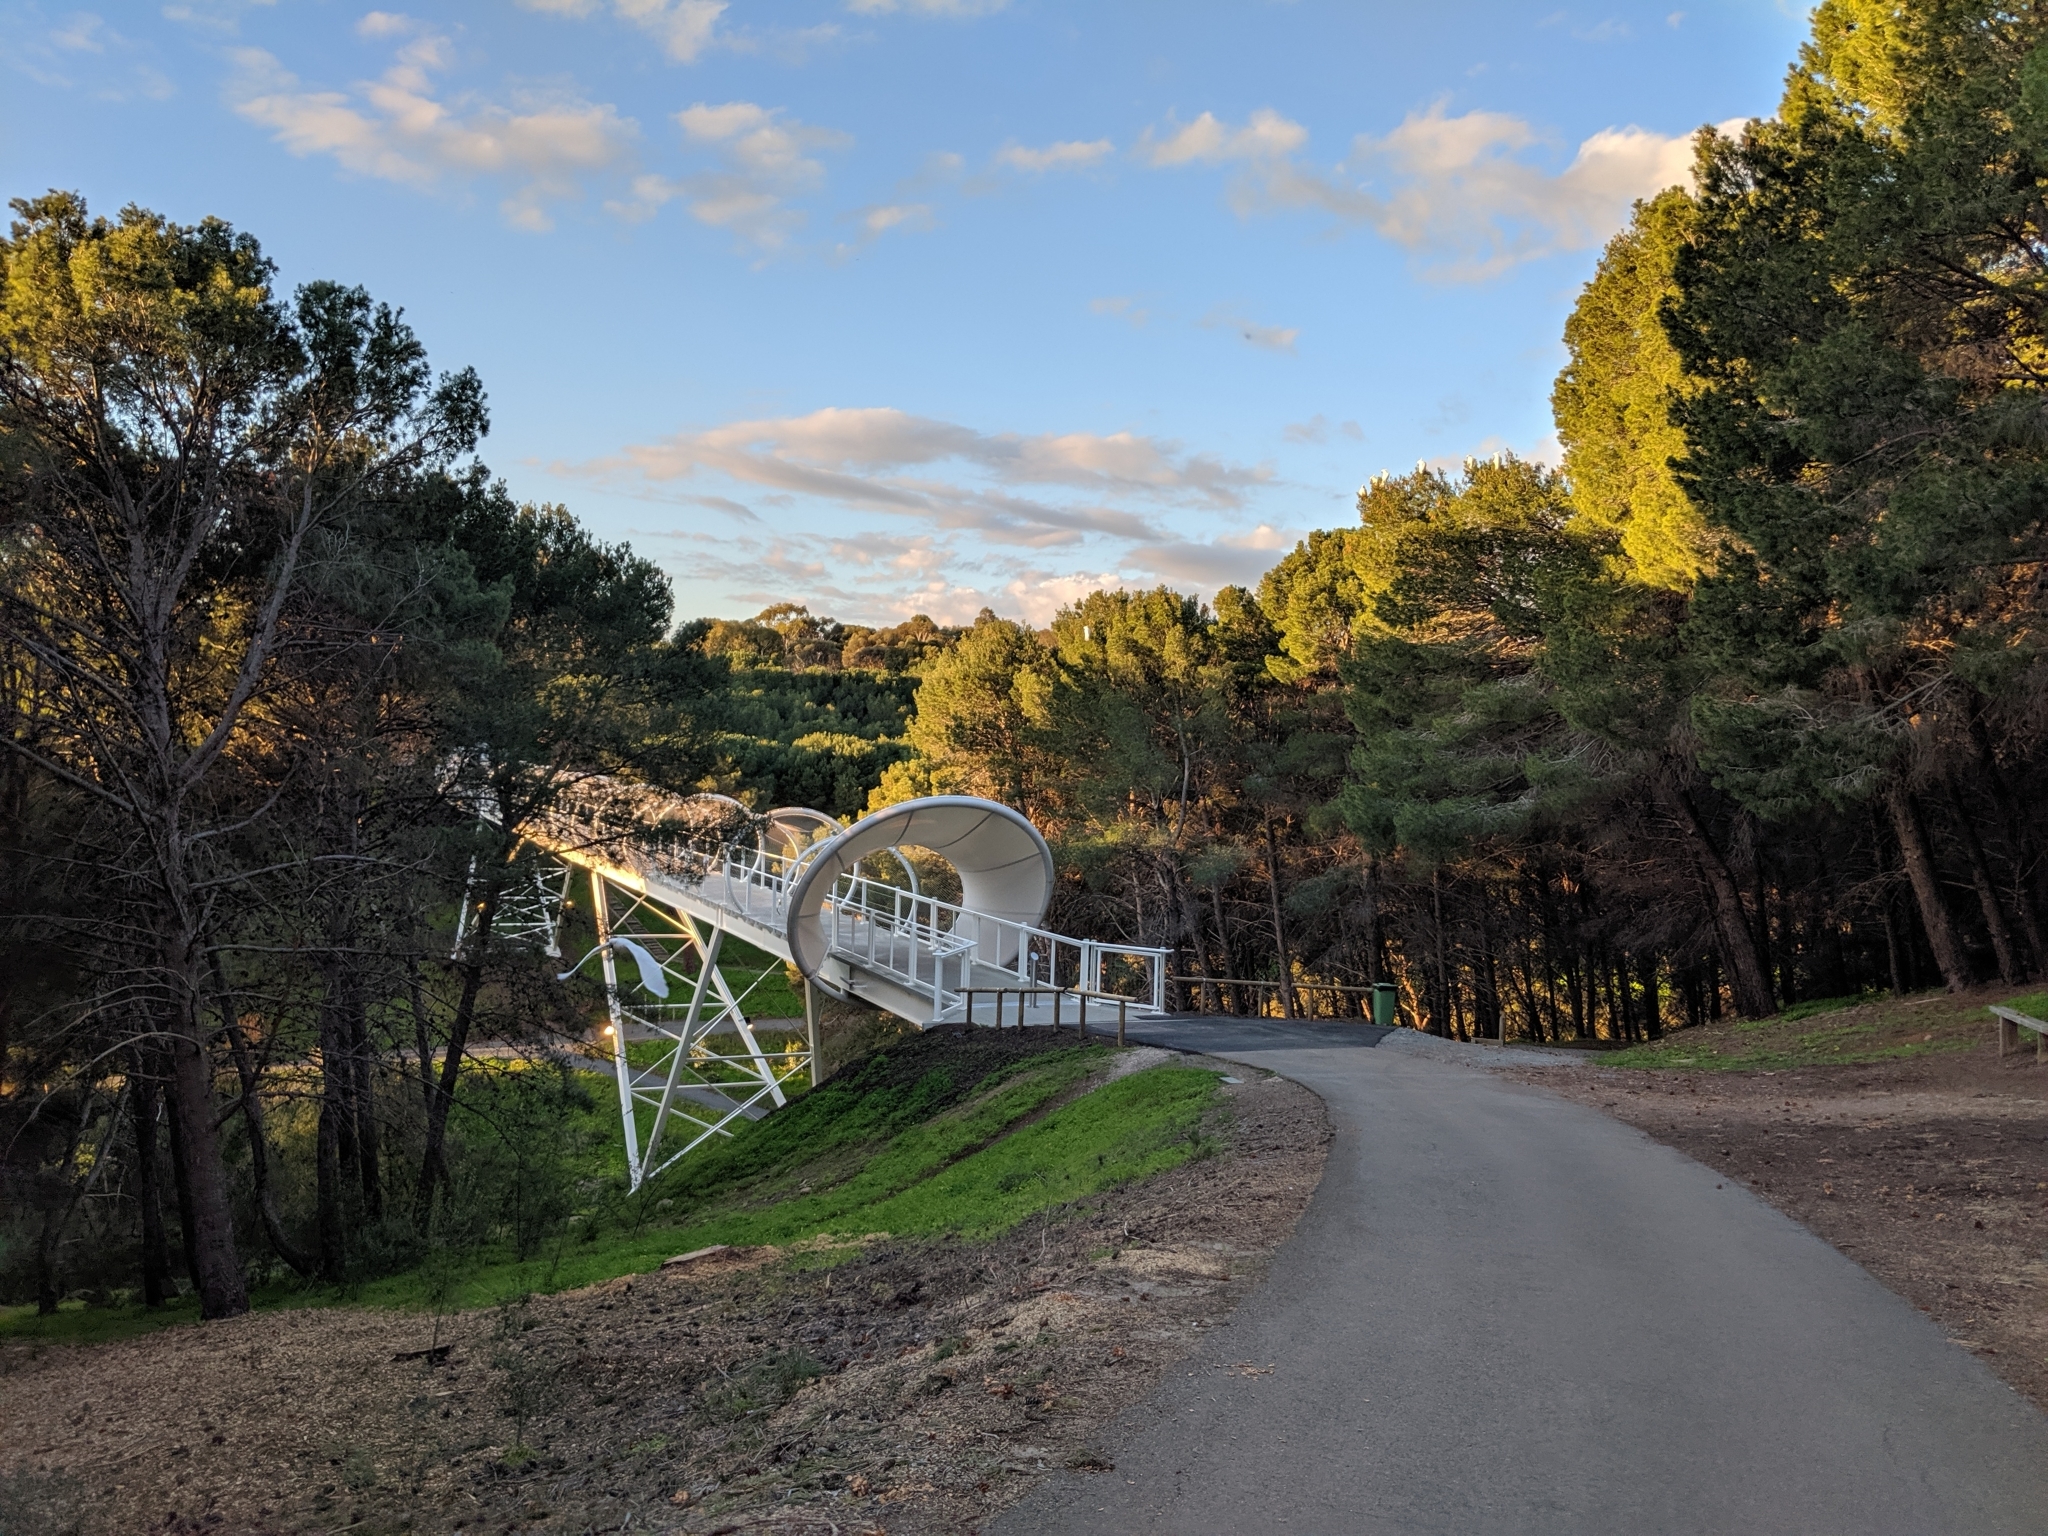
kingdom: Animalia
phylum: Chordata
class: Aves
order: Psittaciformes
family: Psittacidae
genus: Cacatua
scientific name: Cacatua galerita
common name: Sulphur-crested cockatoo
